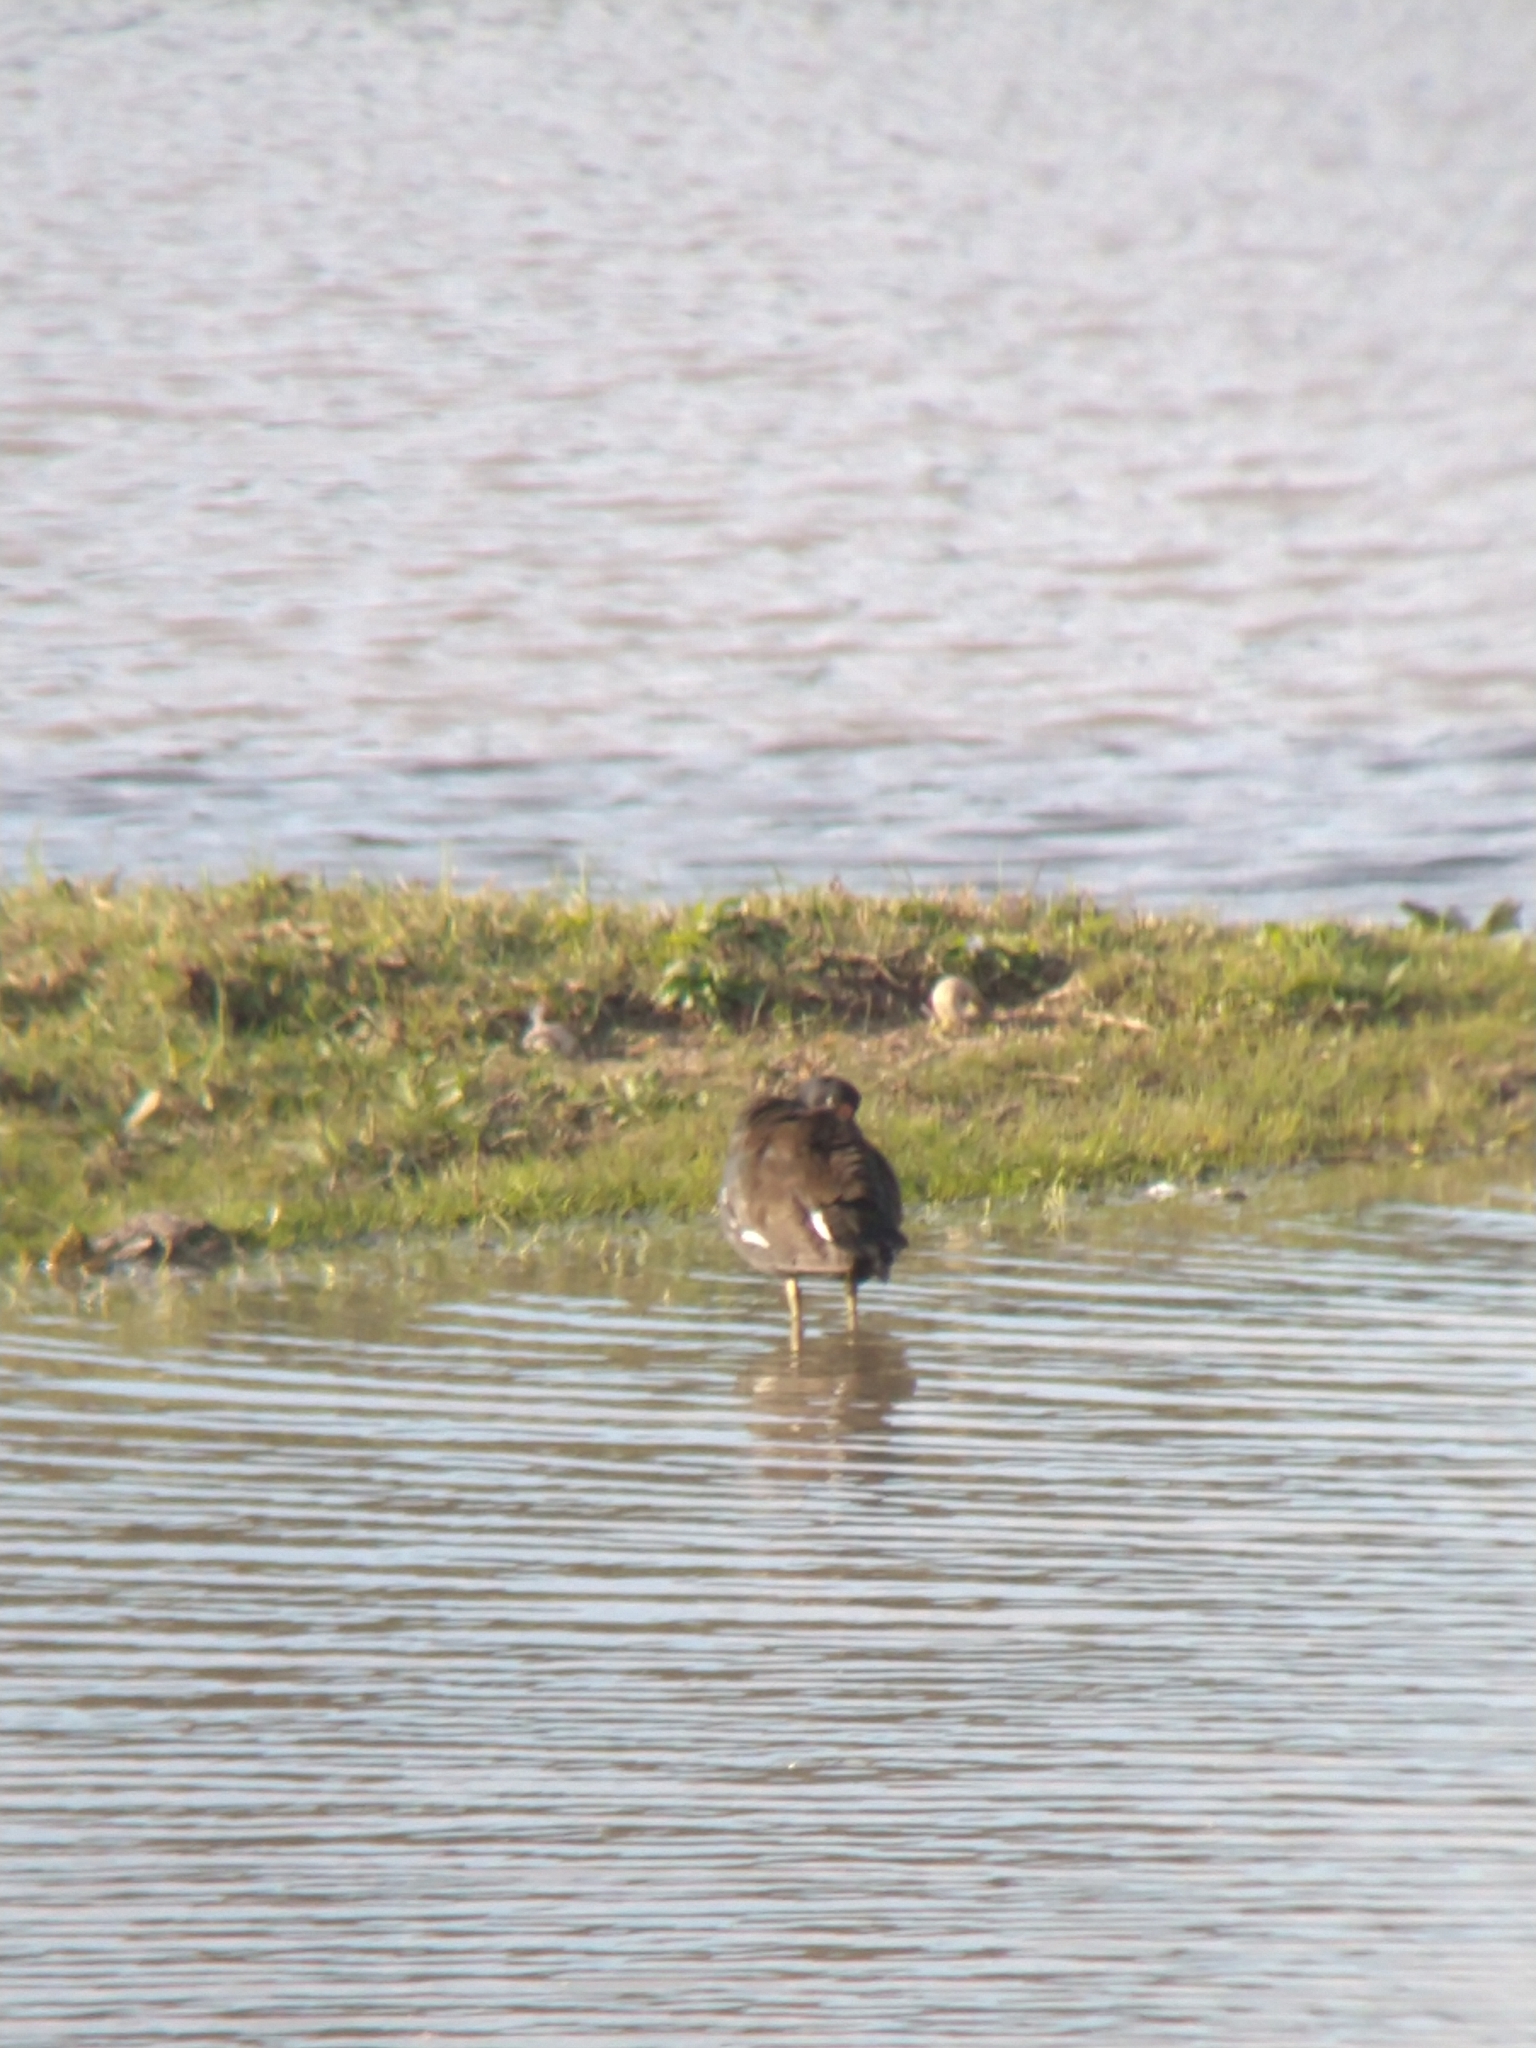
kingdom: Animalia
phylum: Chordata
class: Aves
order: Gruiformes
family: Rallidae
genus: Gallinula
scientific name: Gallinula chloropus
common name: Common moorhen
